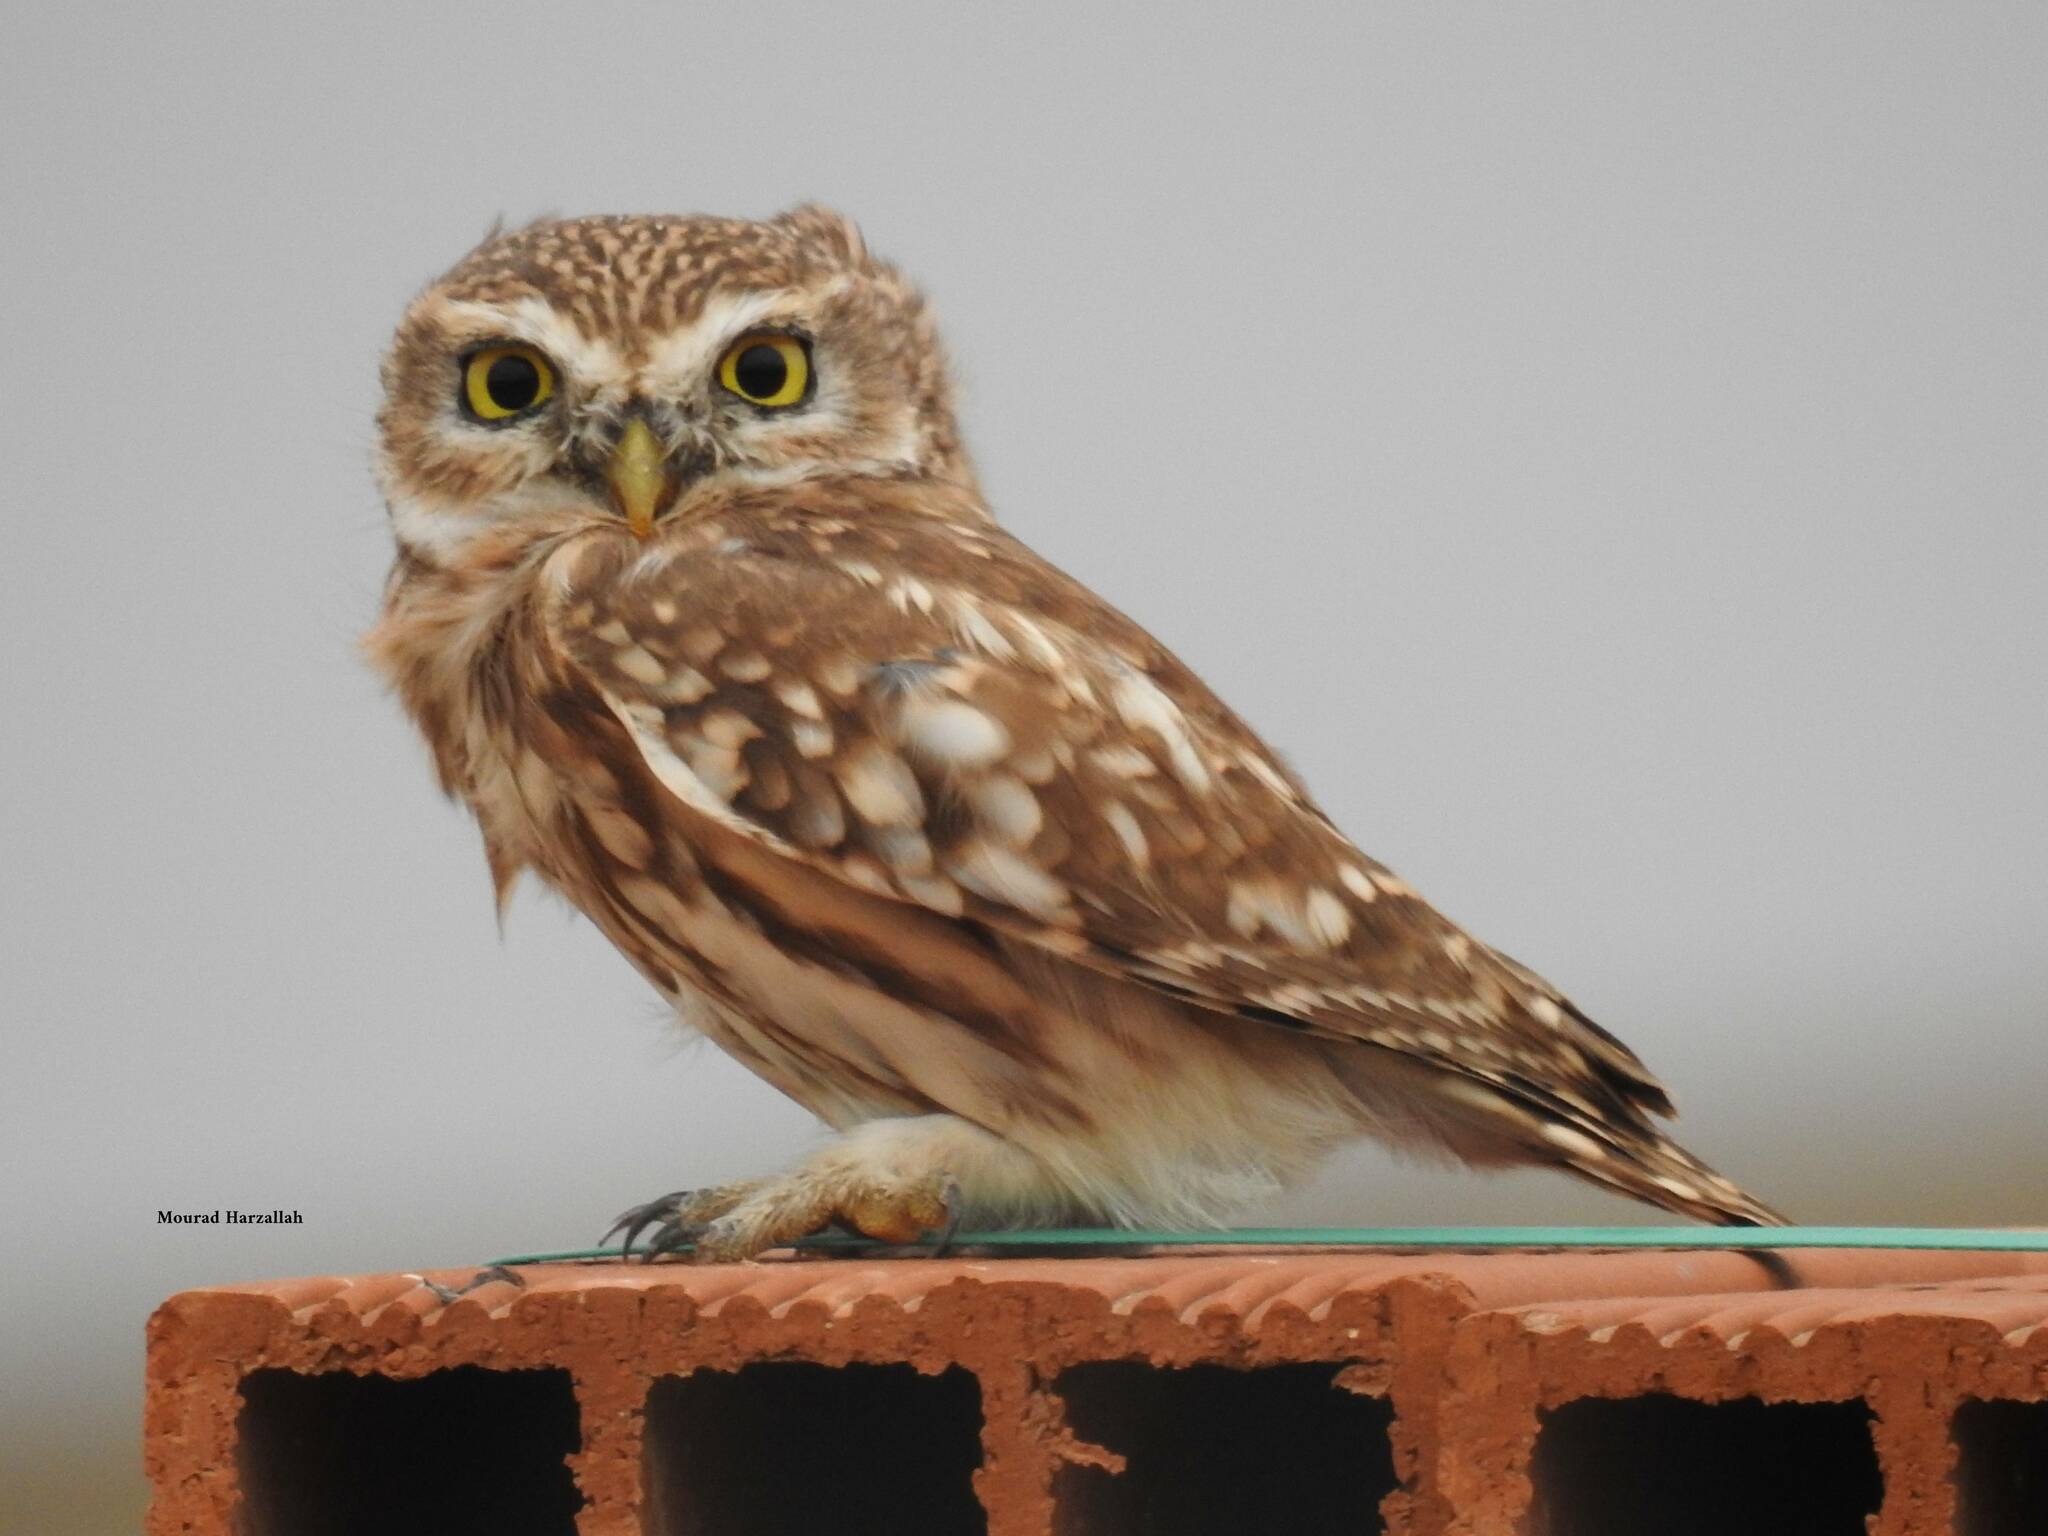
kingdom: Animalia
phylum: Chordata
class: Aves
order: Strigiformes
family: Strigidae
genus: Athene
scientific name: Athene noctua
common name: Little owl
